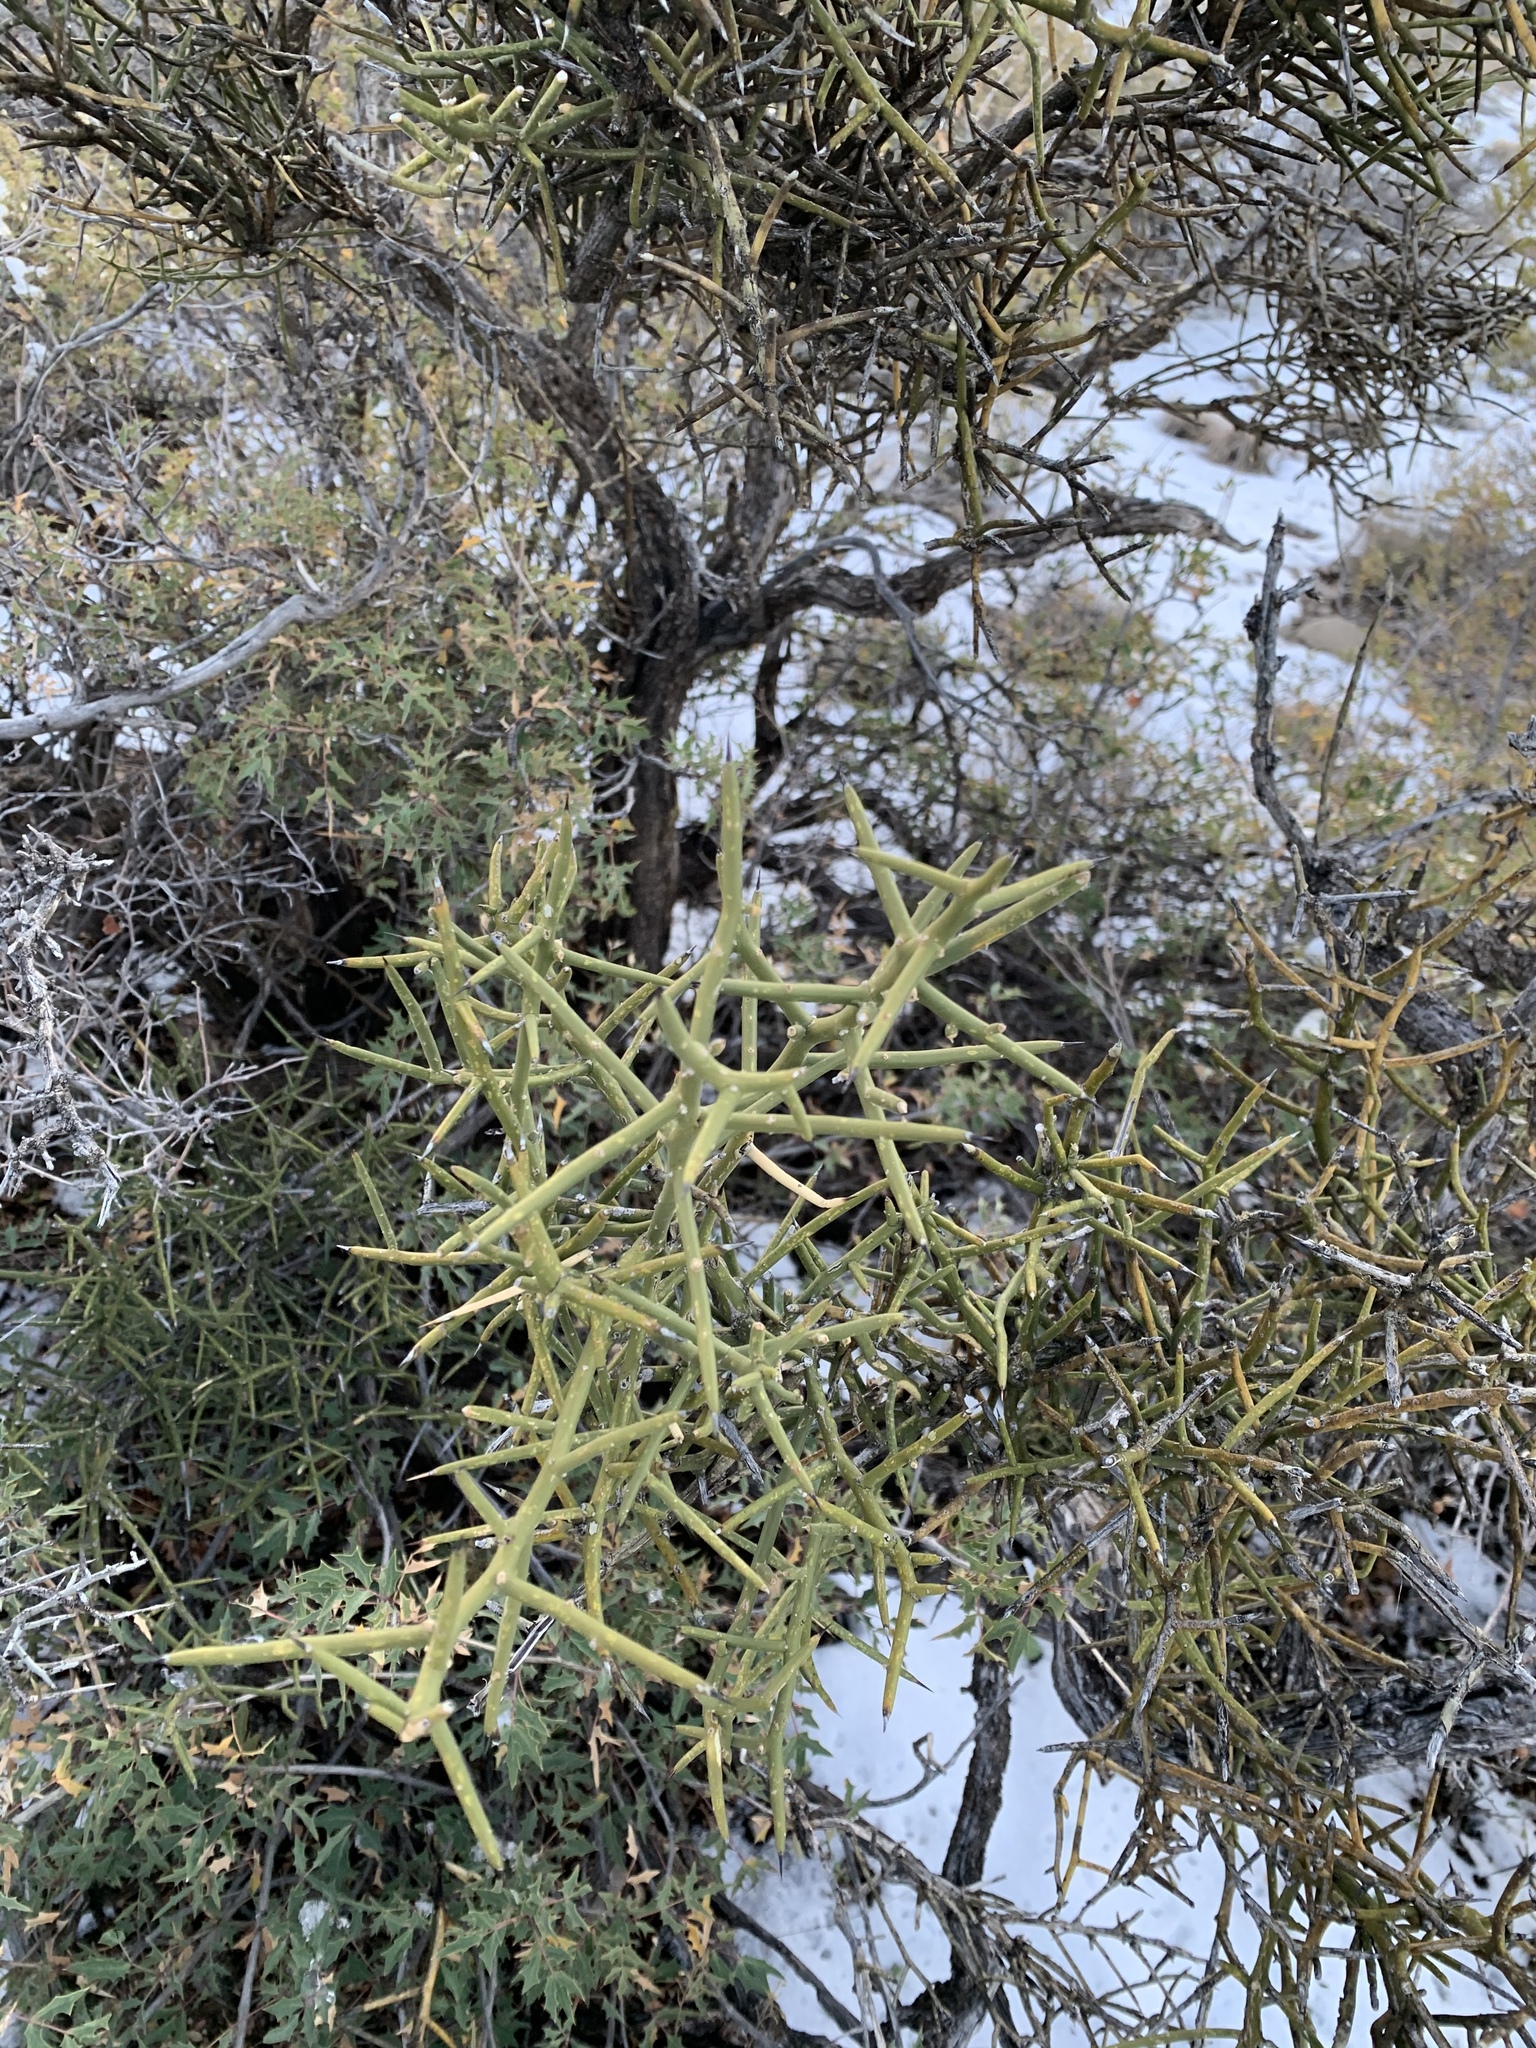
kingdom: Plantae
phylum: Tracheophyta
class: Magnoliopsida
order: Brassicales
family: Koeberliniaceae
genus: Koeberlinia
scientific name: Koeberlinia spinosa
